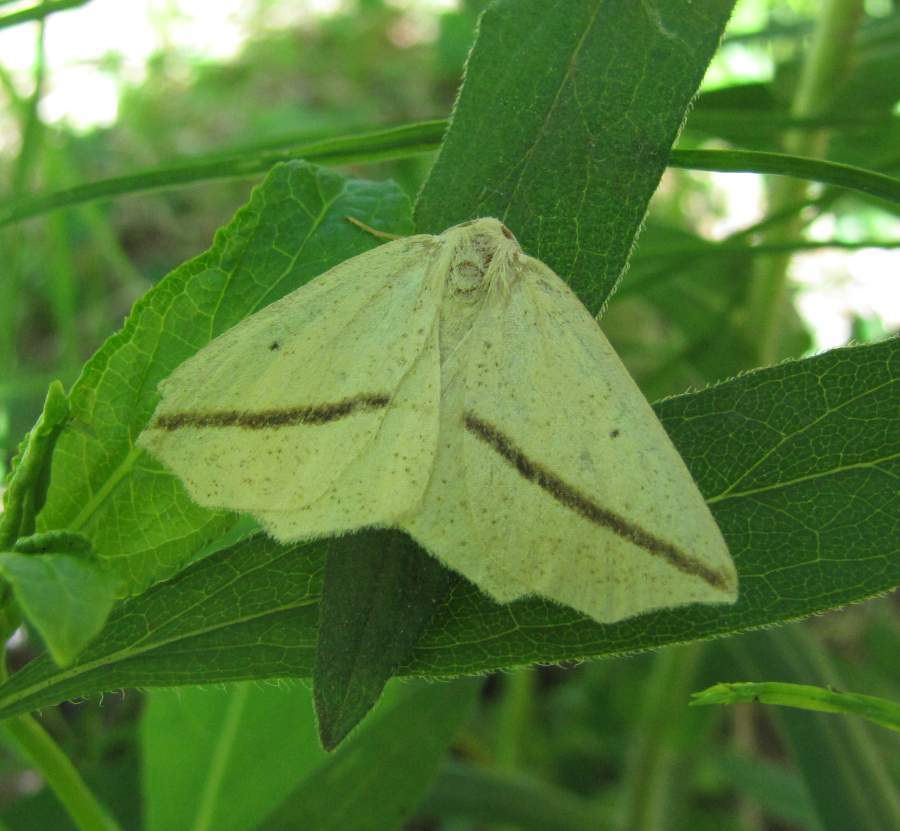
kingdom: Animalia
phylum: Arthropoda
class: Insecta
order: Lepidoptera
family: Geometridae
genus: Tetracis
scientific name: Tetracis crocallata
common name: Yellow slant-line
